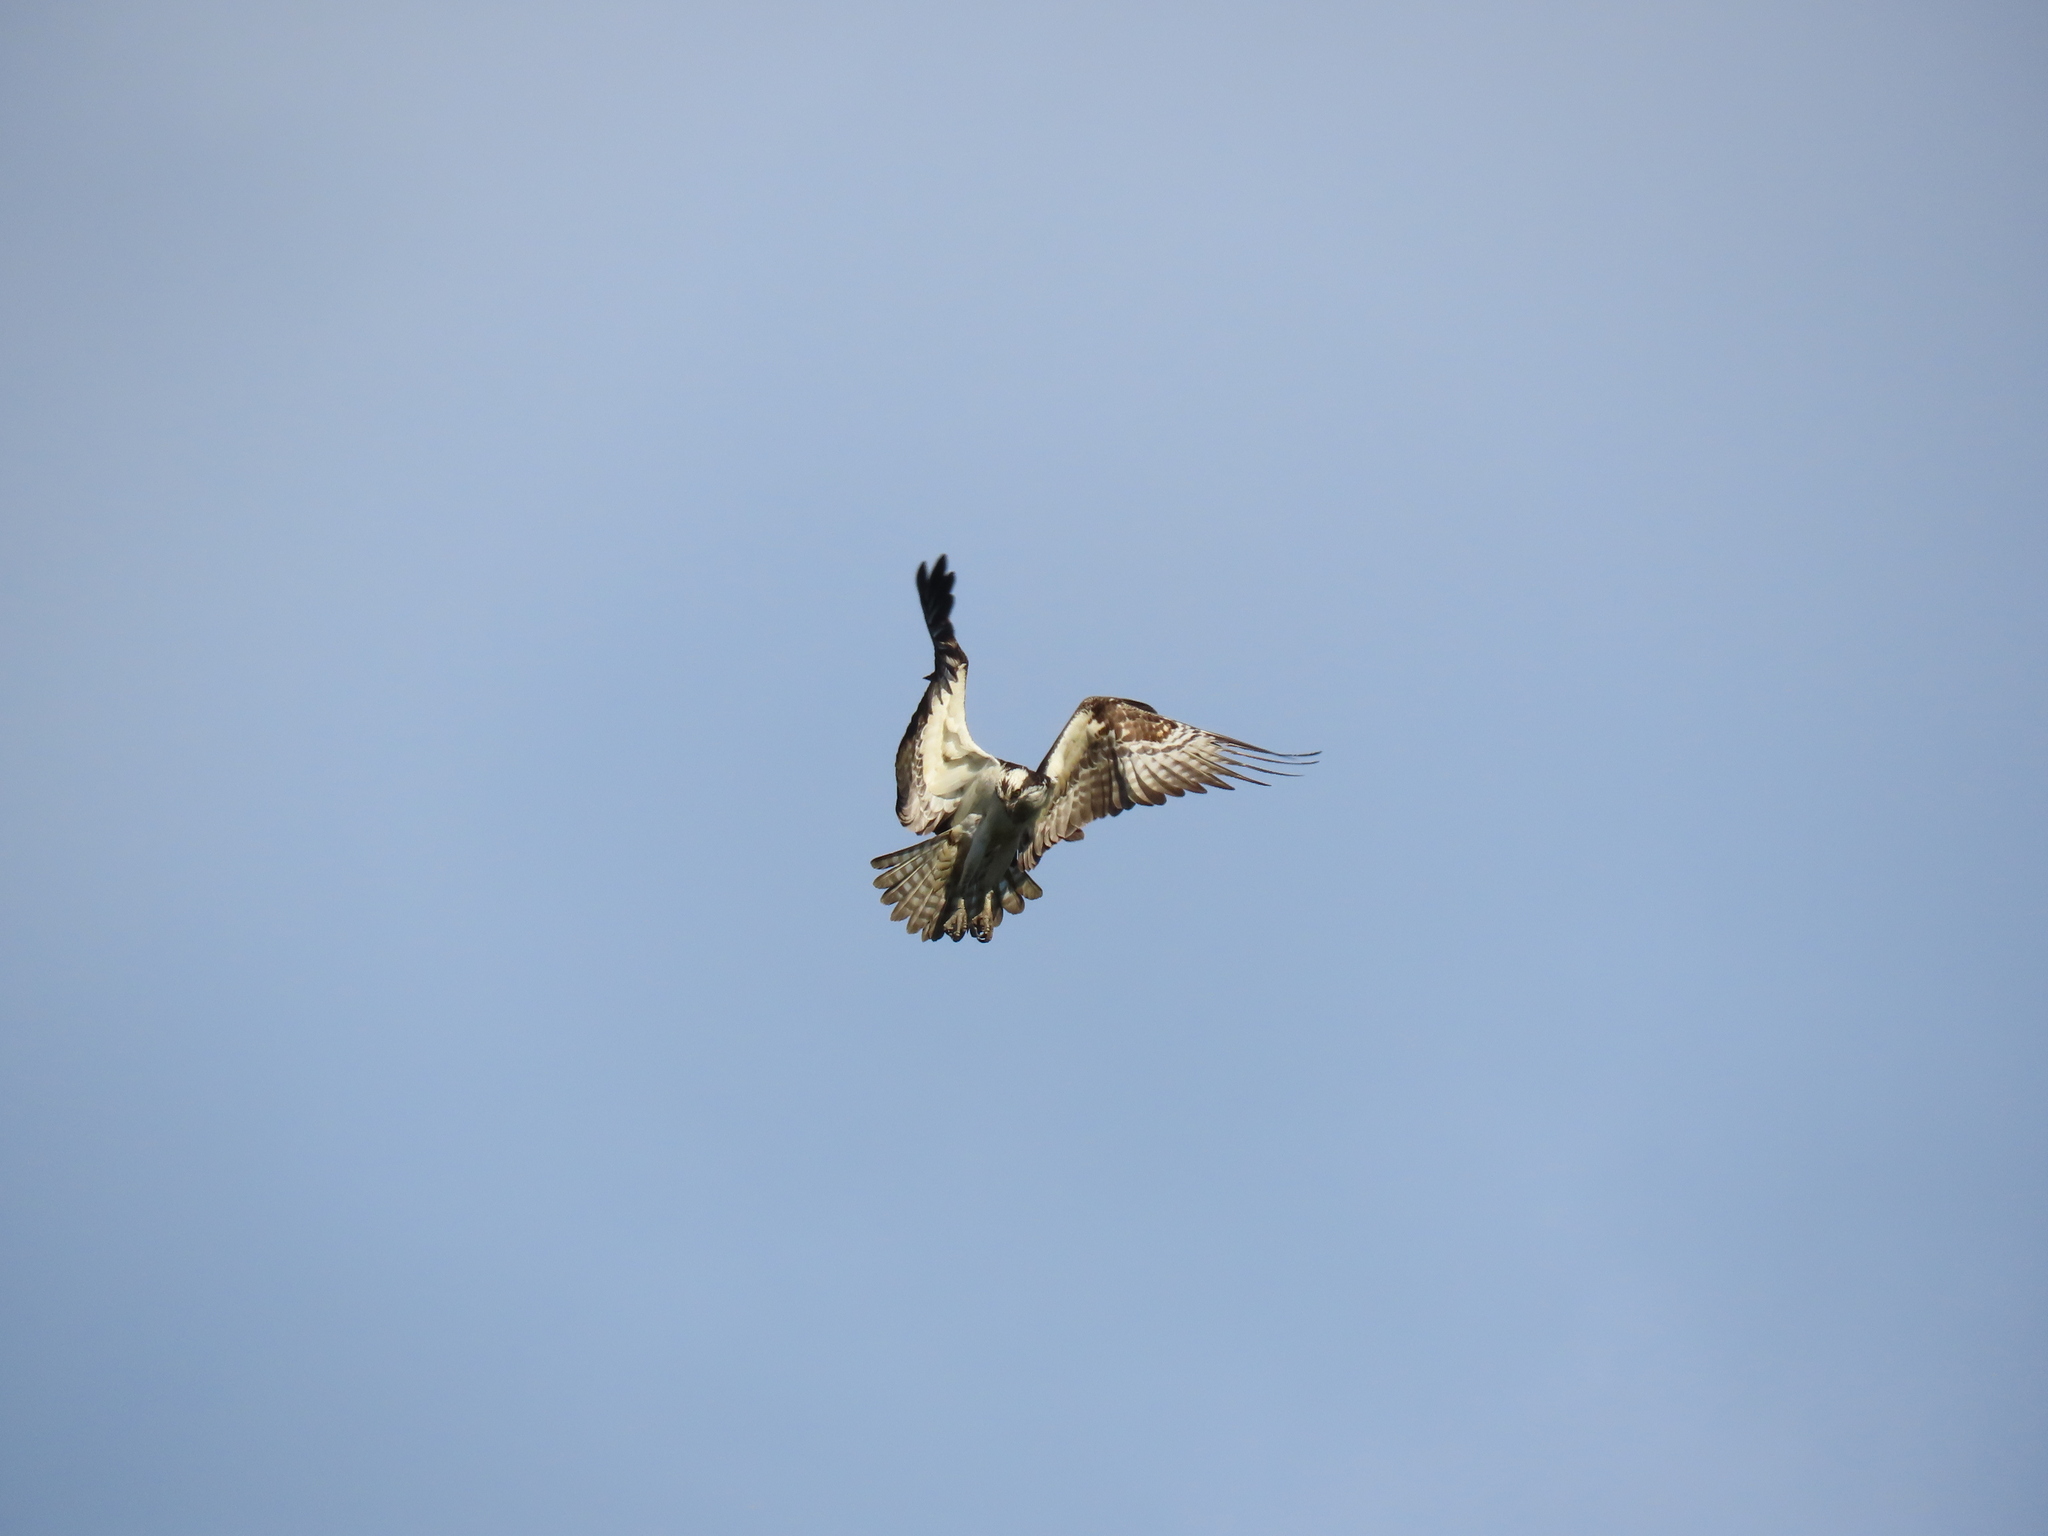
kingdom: Animalia
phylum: Chordata
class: Aves
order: Accipitriformes
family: Pandionidae
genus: Pandion
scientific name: Pandion haliaetus
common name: Osprey
